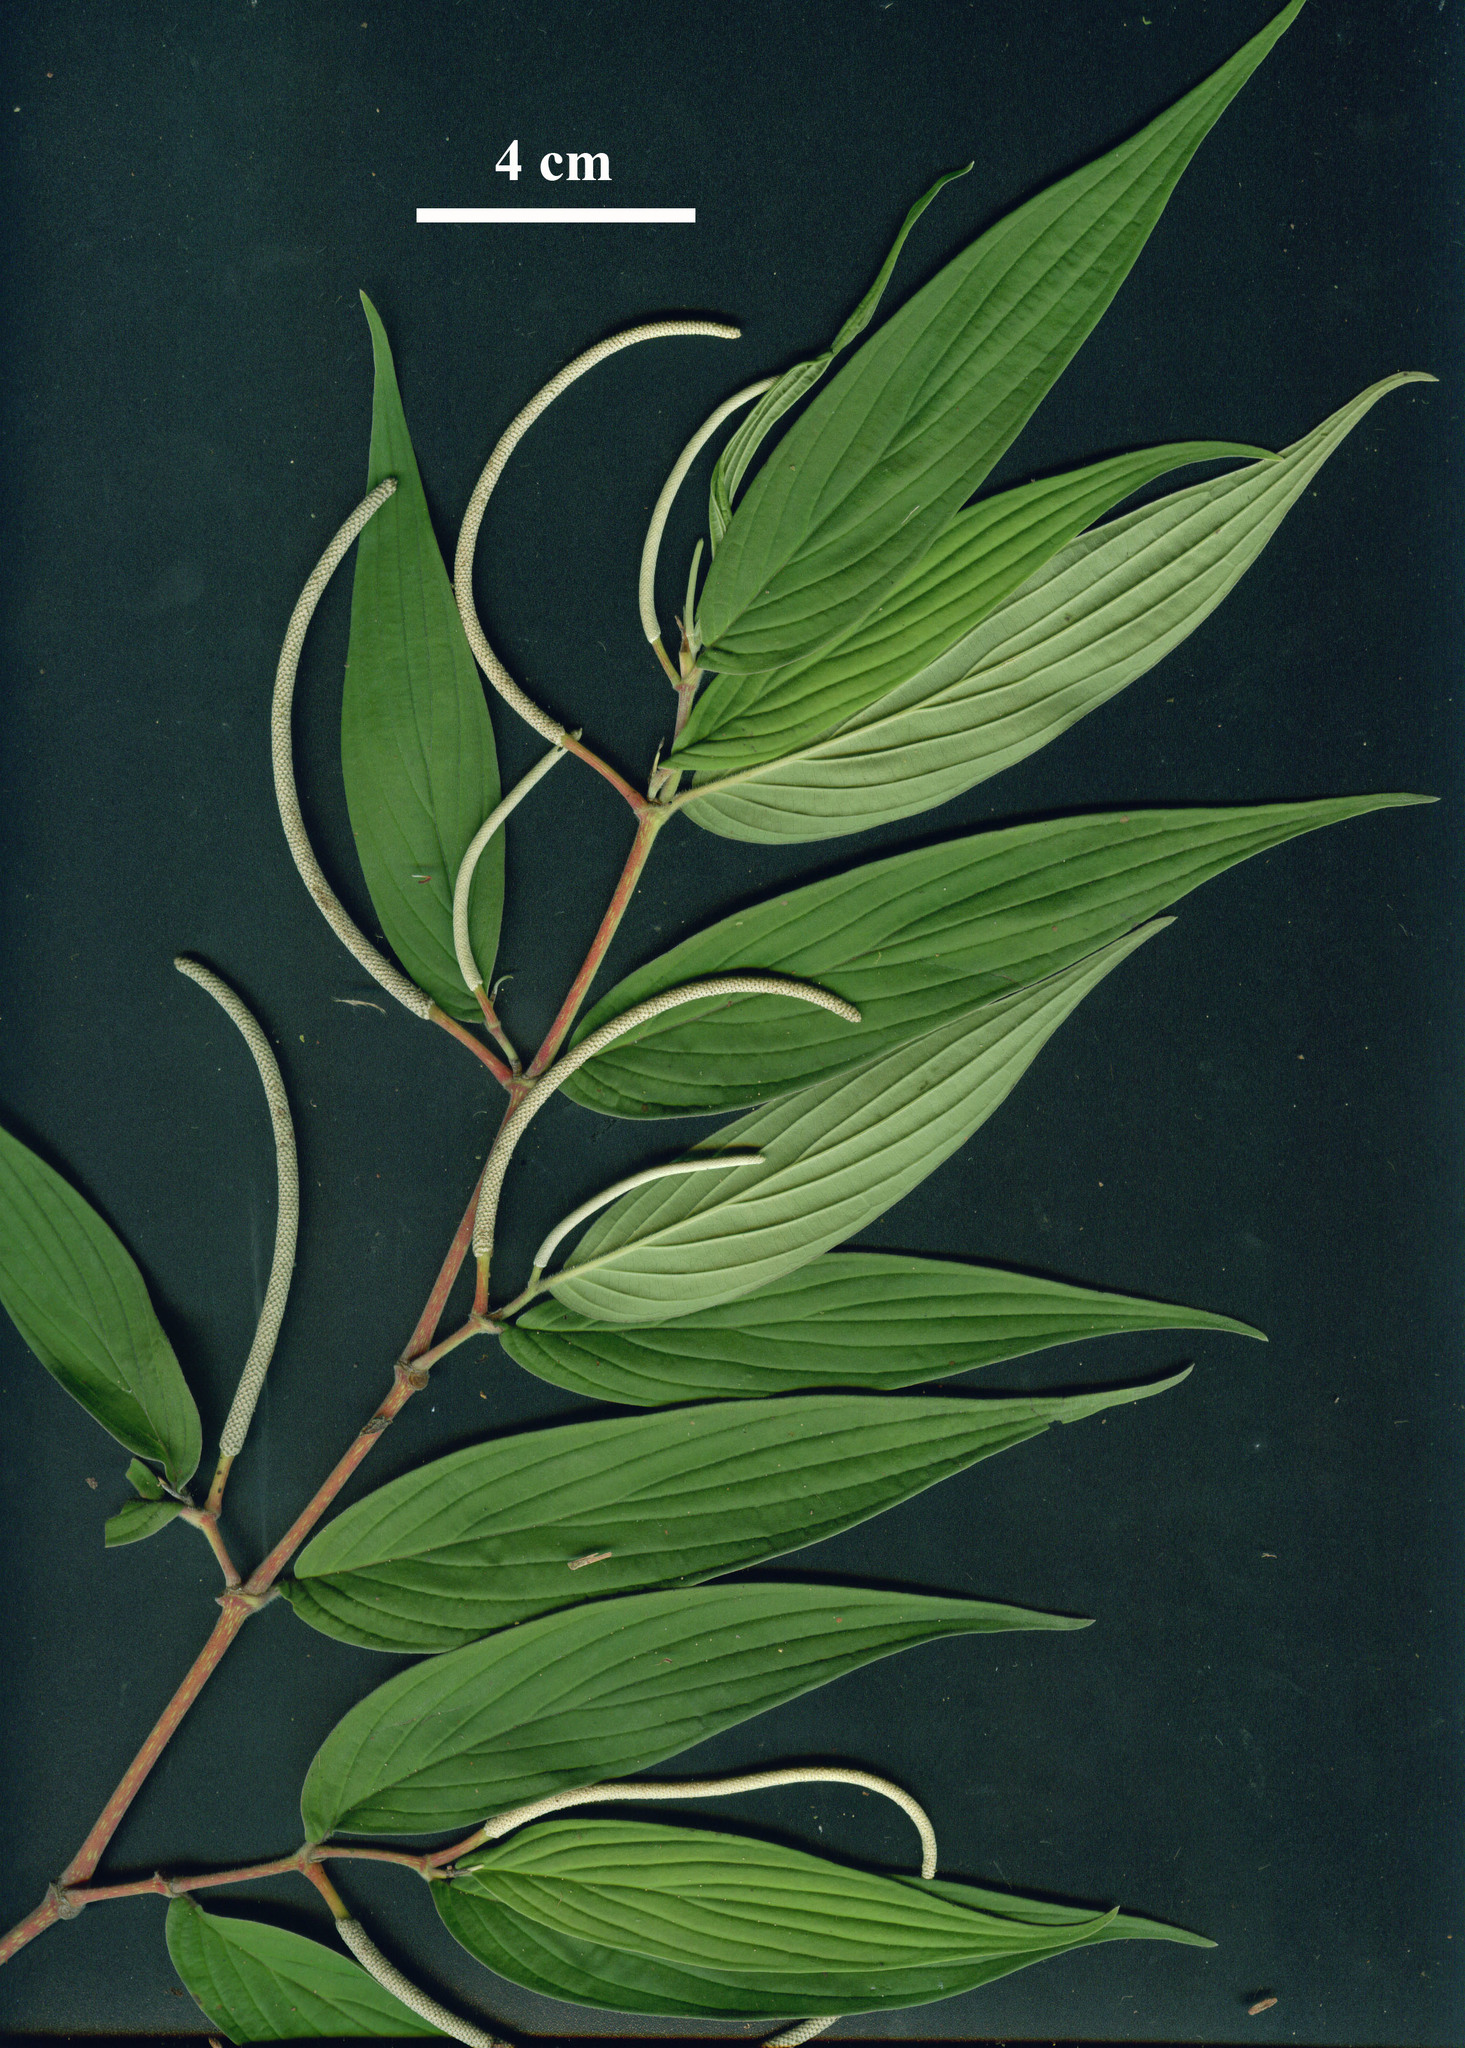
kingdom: Plantae
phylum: Tracheophyta
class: Magnoliopsida
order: Piperales
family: Piperaceae
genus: Piper
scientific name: Piper friedrichsthalii
